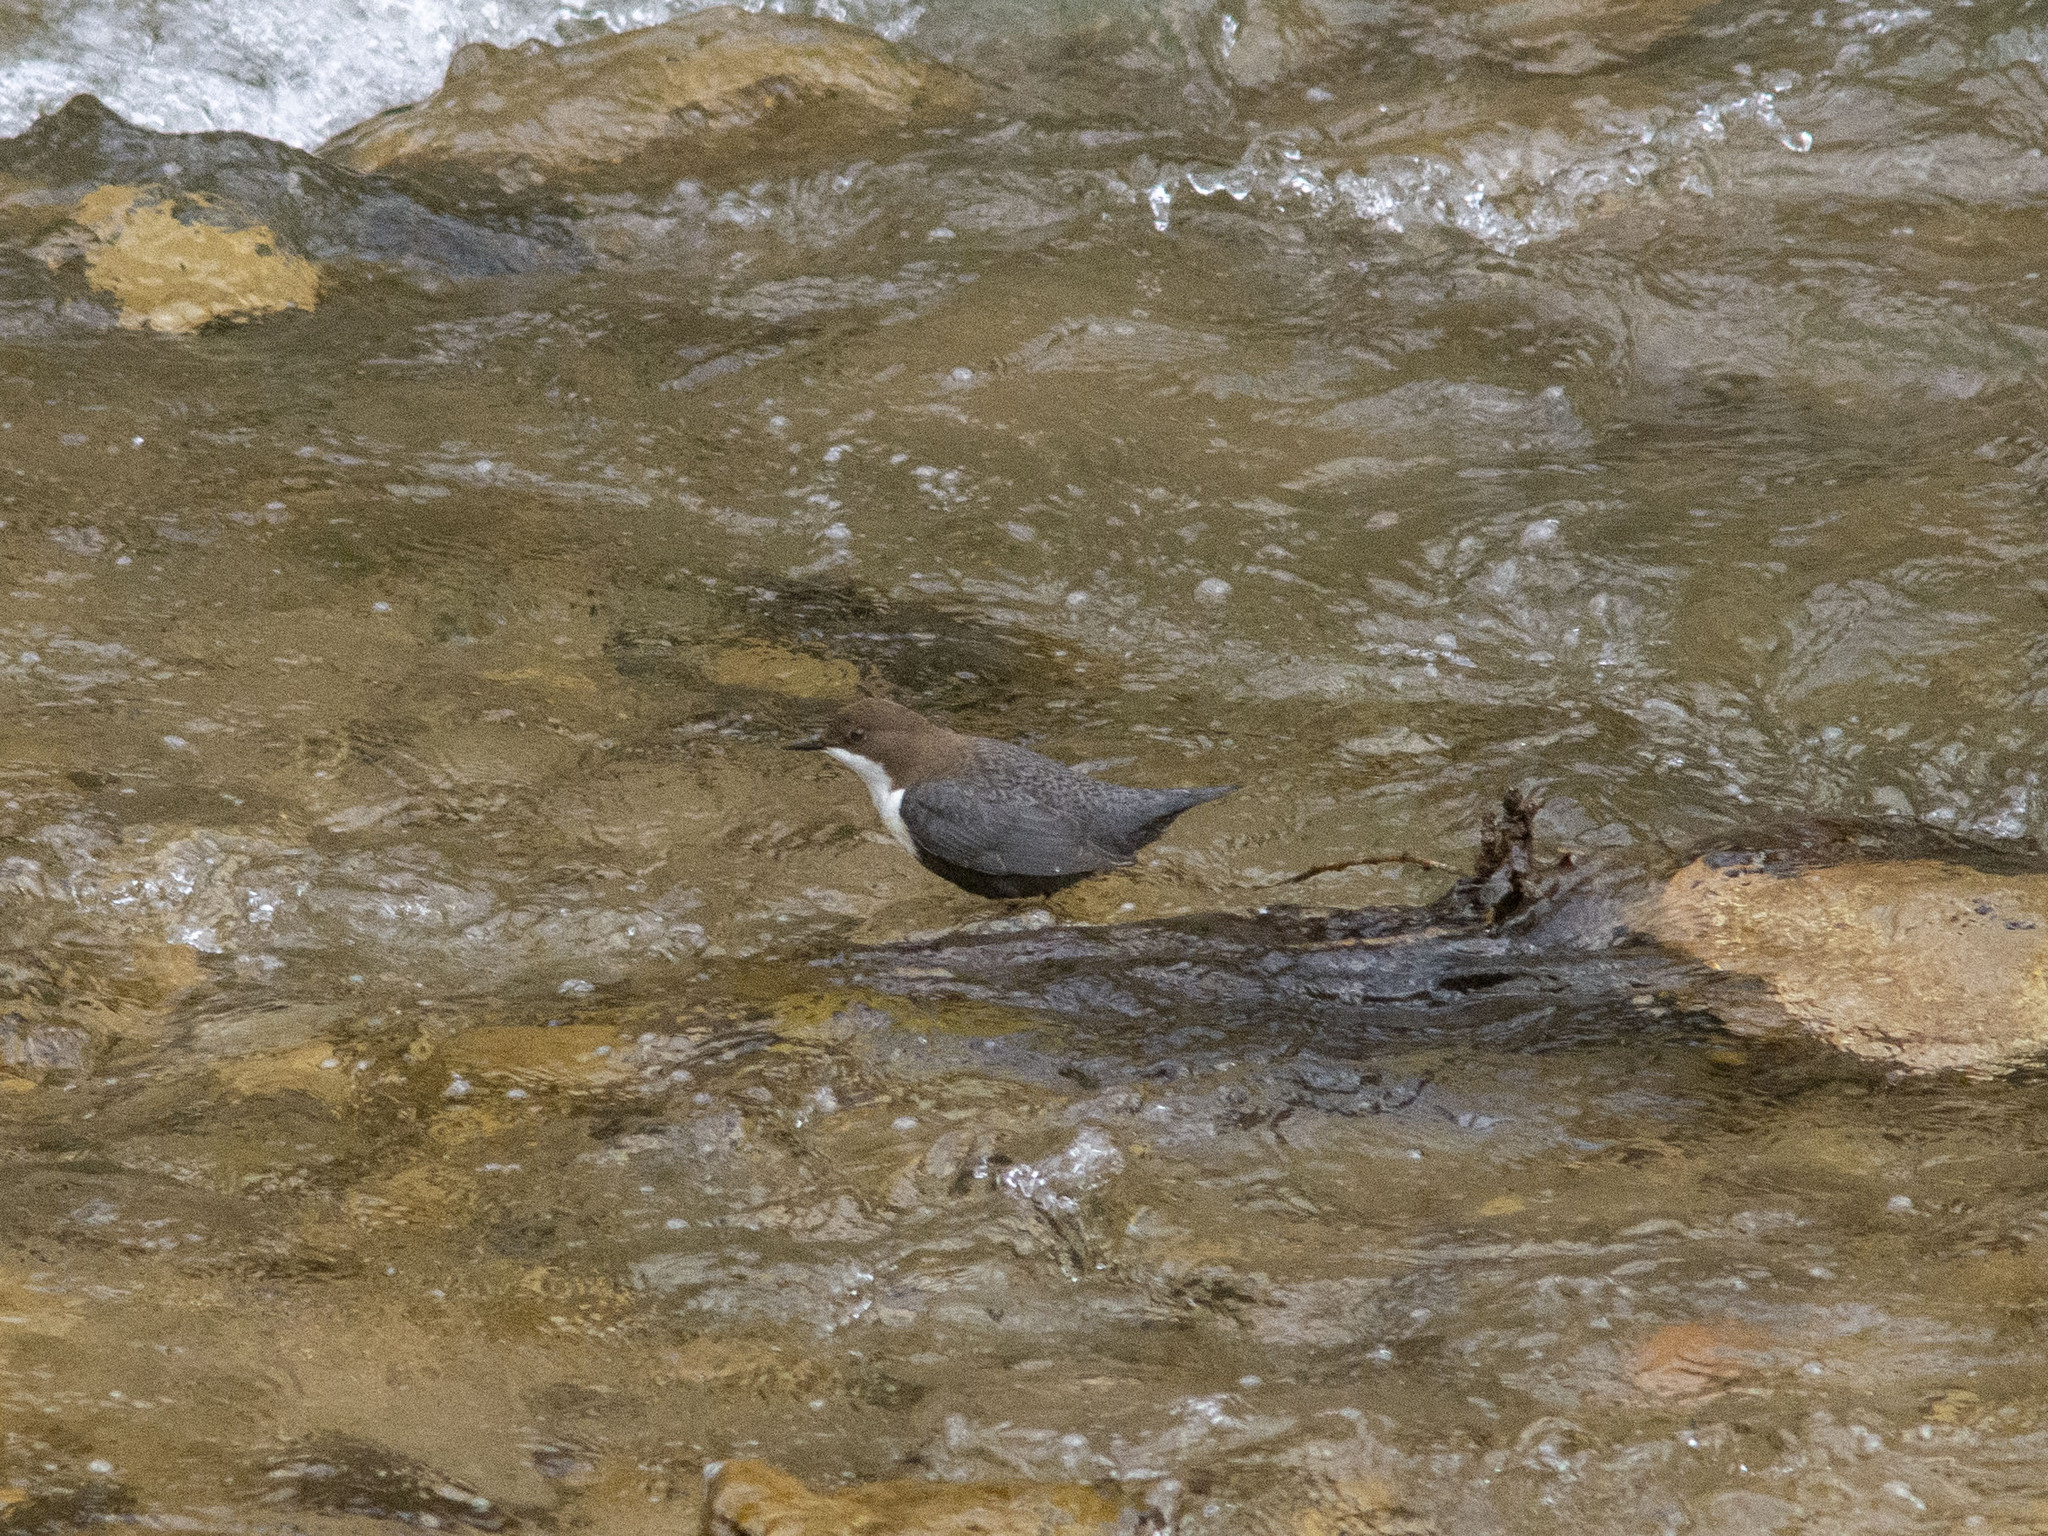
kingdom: Animalia
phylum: Chordata
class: Aves
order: Passeriformes
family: Cinclidae
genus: Cinclus
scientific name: Cinclus cinclus
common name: White-throated dipper
